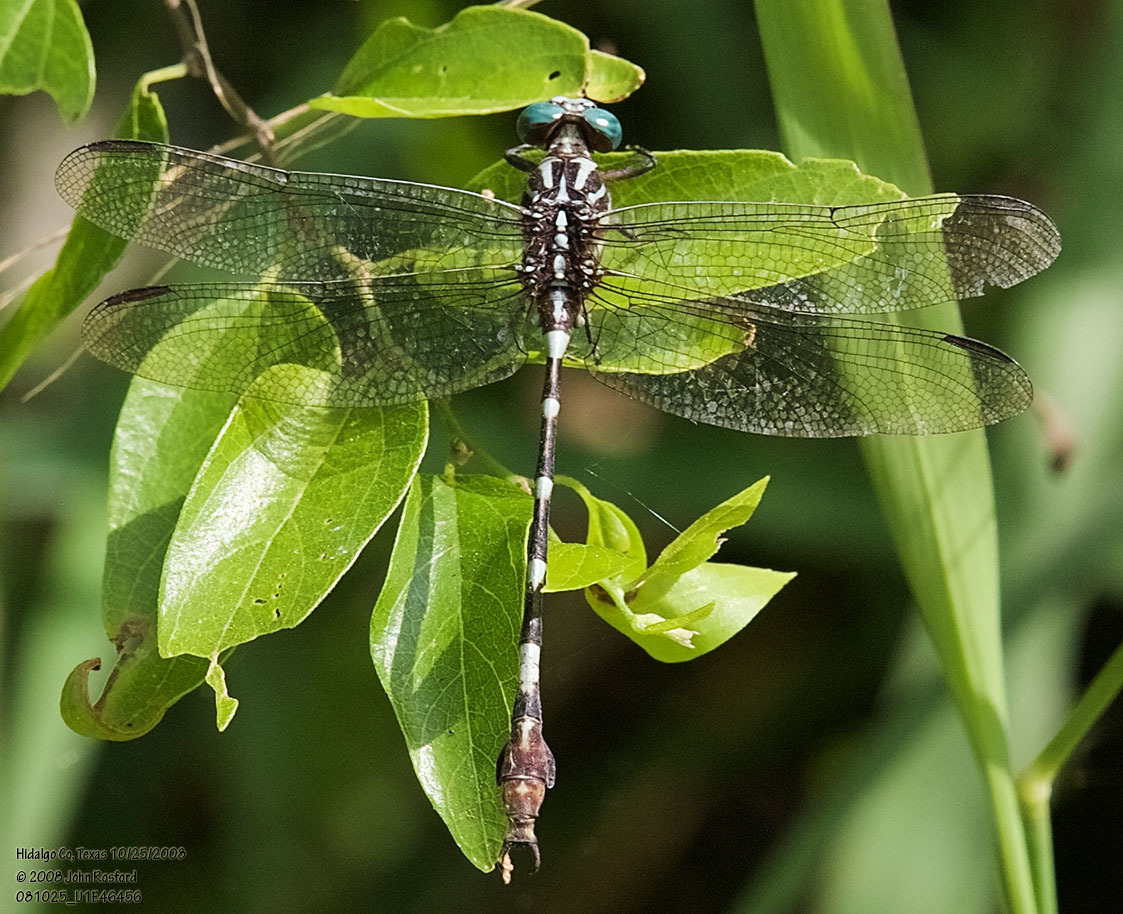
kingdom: Animalia
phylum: Arthropoda
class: Insecta
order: Odonata
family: Gomphidae
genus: Phyllocycla
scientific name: Phyllocycla breviphylla
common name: Ringed forceptail
